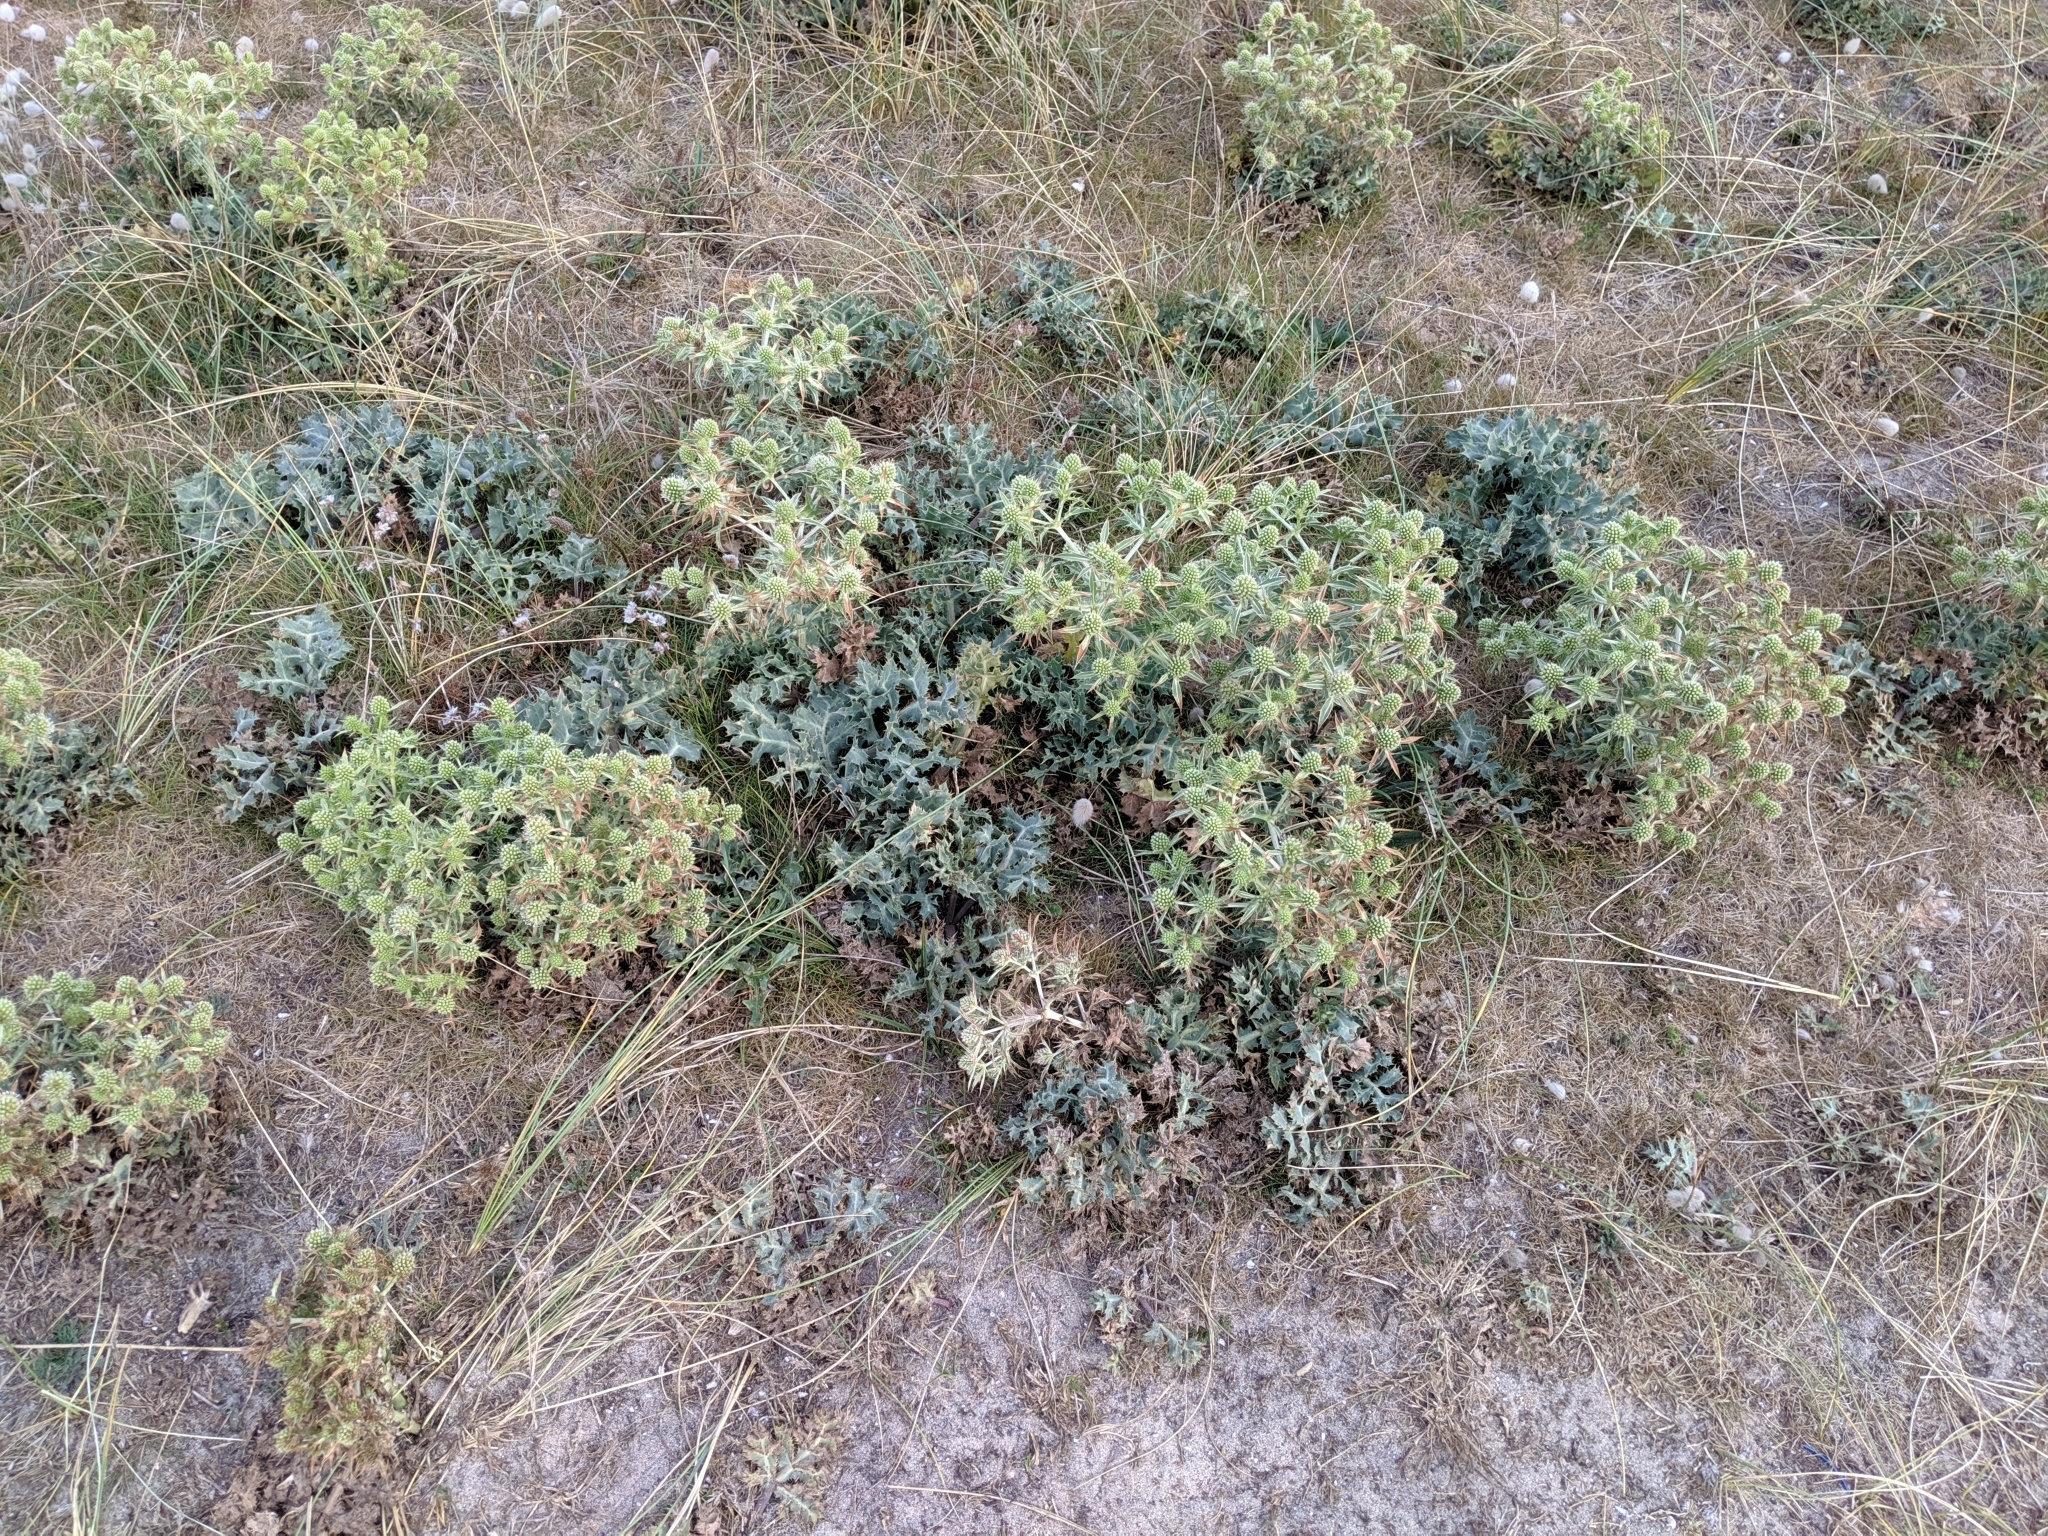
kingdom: Plantae
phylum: Tracheophyta
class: Magnoliopsida
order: Apiales
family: Apiaceae
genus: Eryngium
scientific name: Eryngium campestre
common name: Field eryngo
